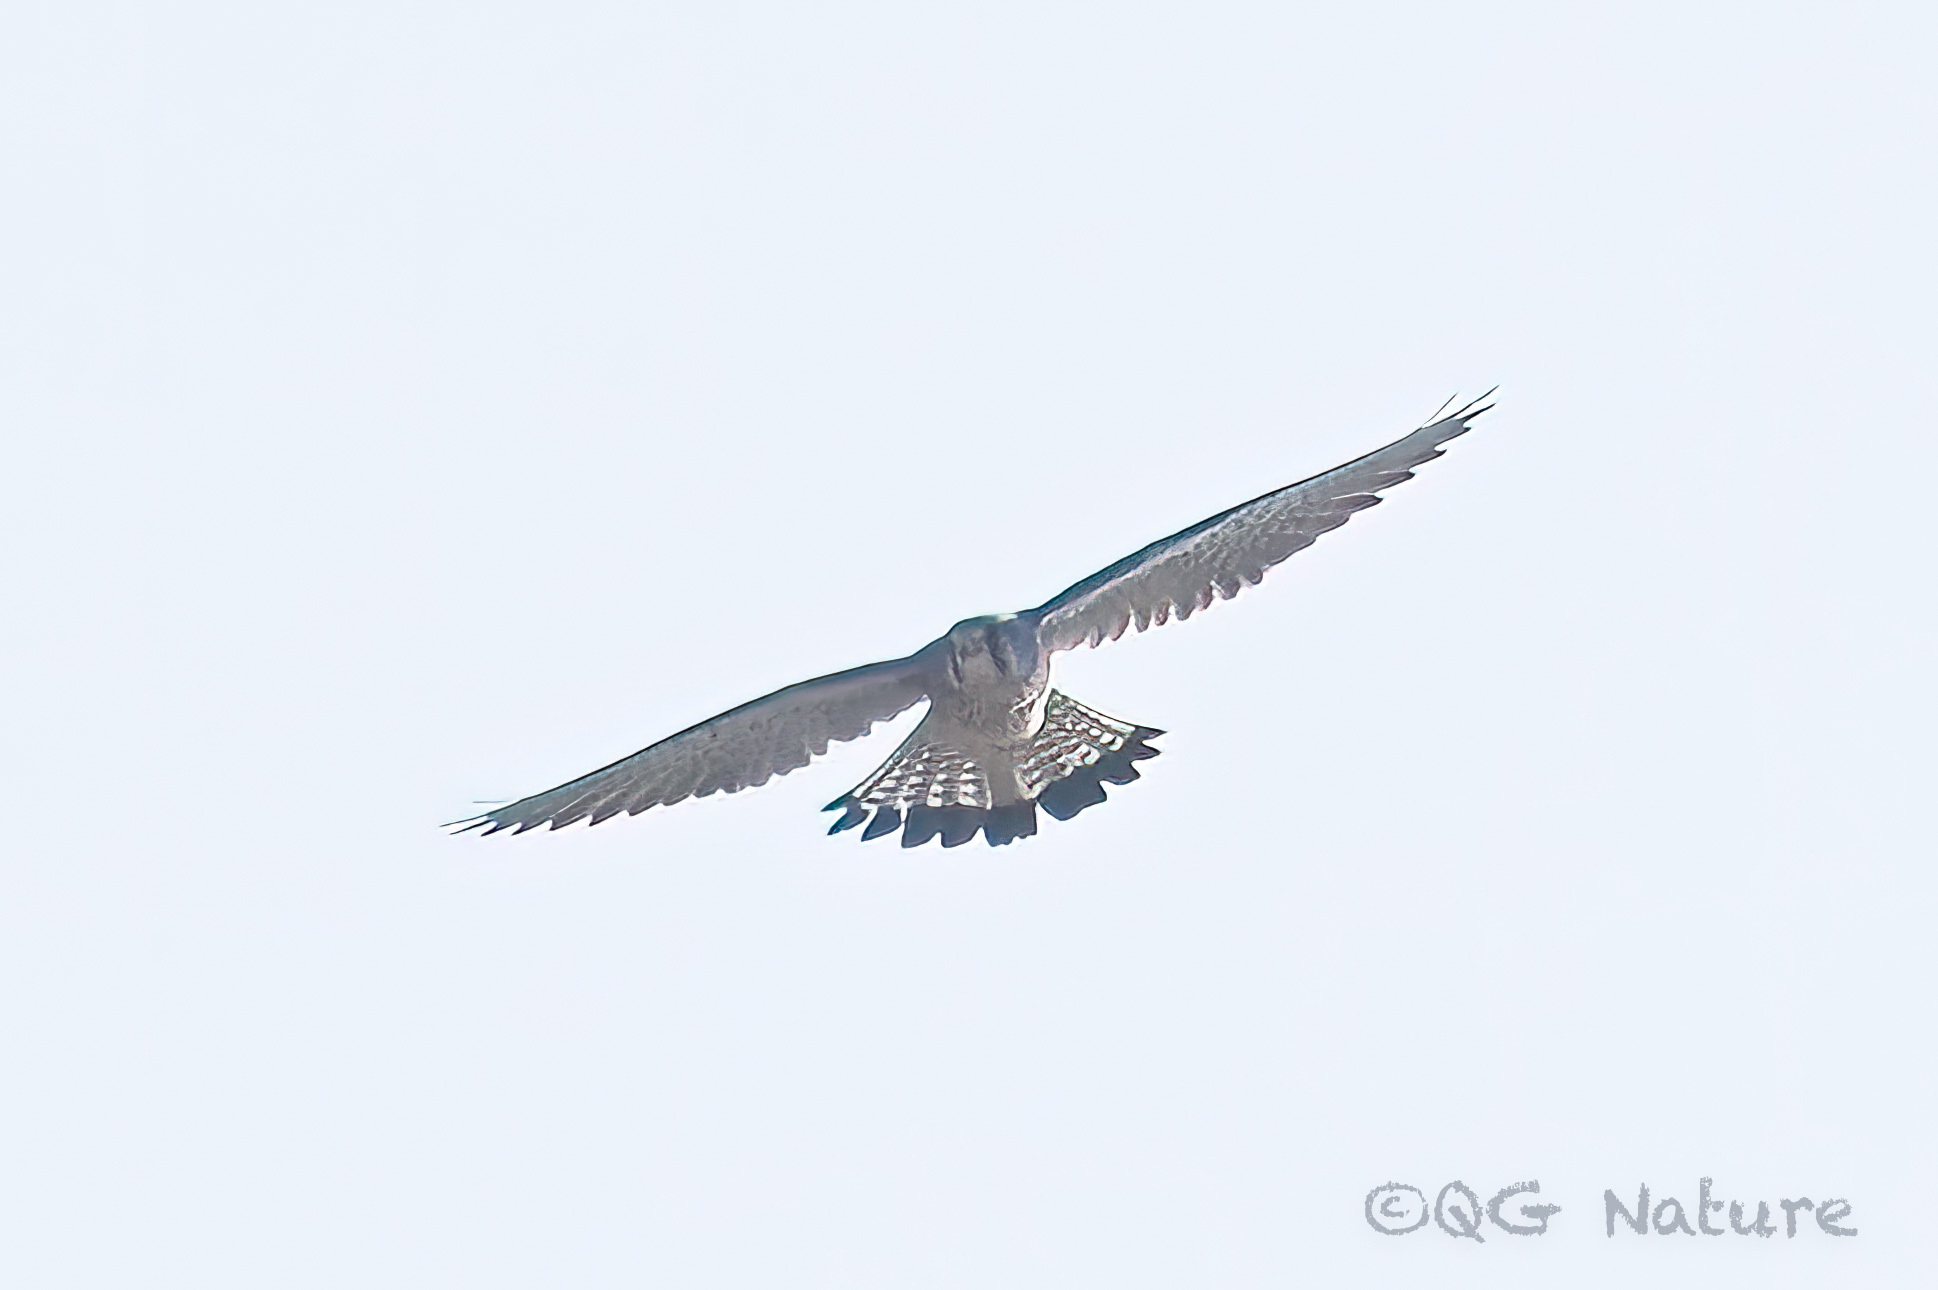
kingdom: Animalia
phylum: Chordata
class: Aves
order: Falconiformes
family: Falconidae
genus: Falco
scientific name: Falco tinnunculus
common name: Common kestrel
